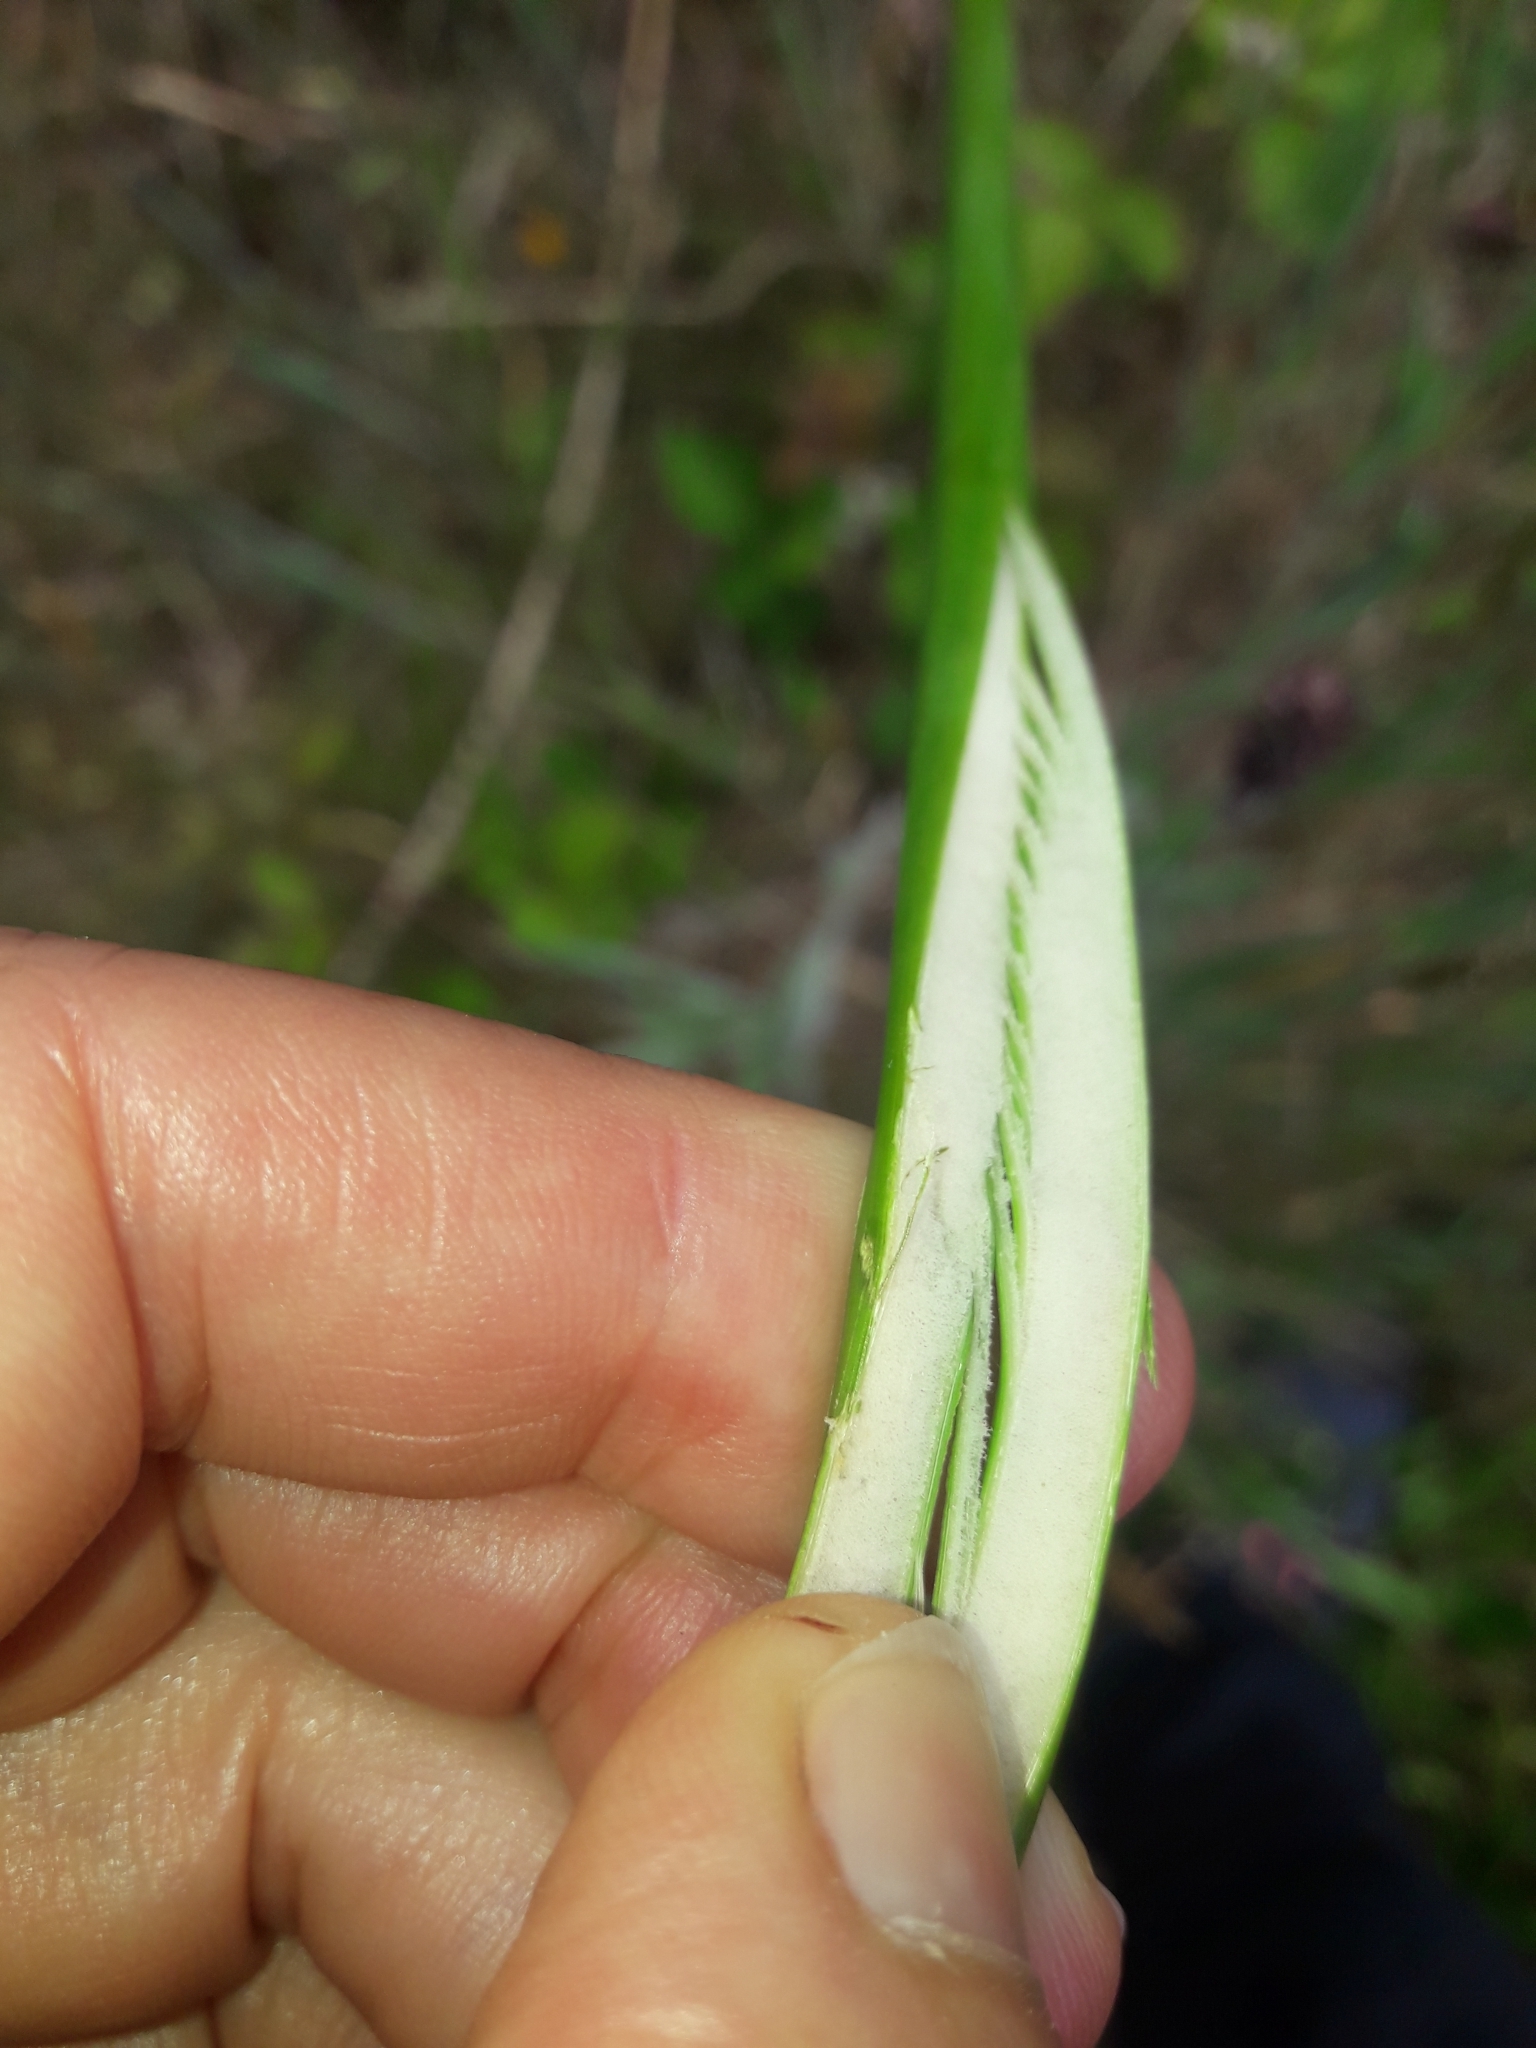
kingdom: Plantae
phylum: Tracheophyta
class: Liliopsida
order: Poales
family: Juncaceae
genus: Juncus
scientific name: Juncus pallidus
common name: Great soft-rush
